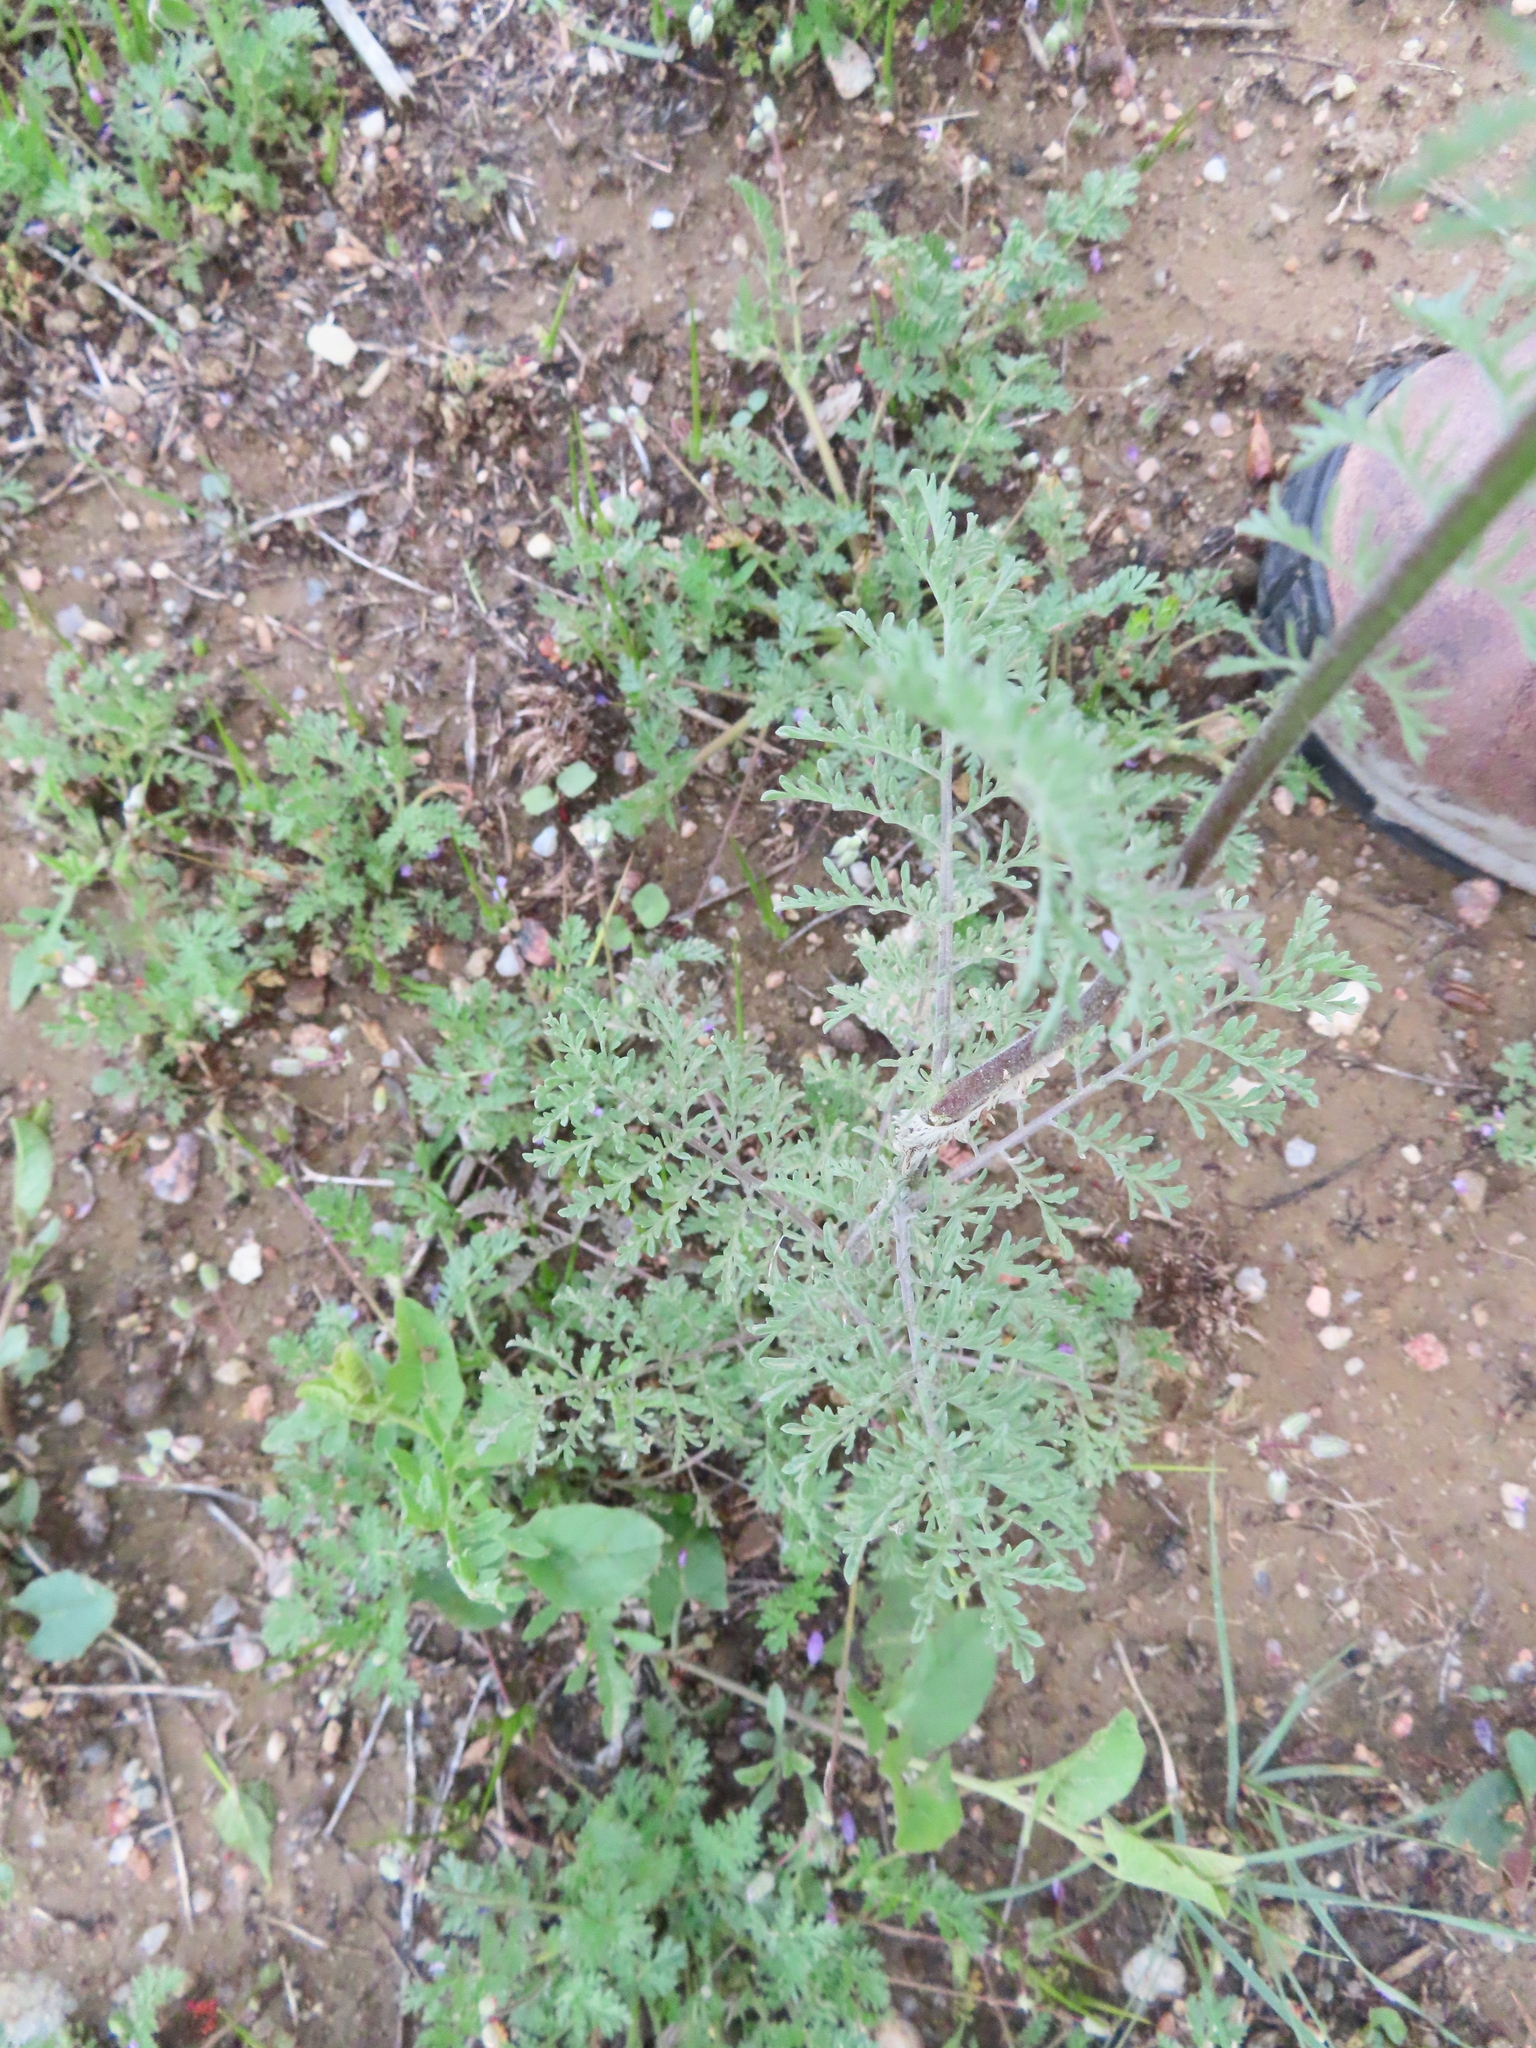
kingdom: Plantae
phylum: Tracheophyta
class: Magnoliopsida
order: Brassicales
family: Brassicaceae
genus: Descurainia
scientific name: Descurainia sophia
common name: Flixweed
